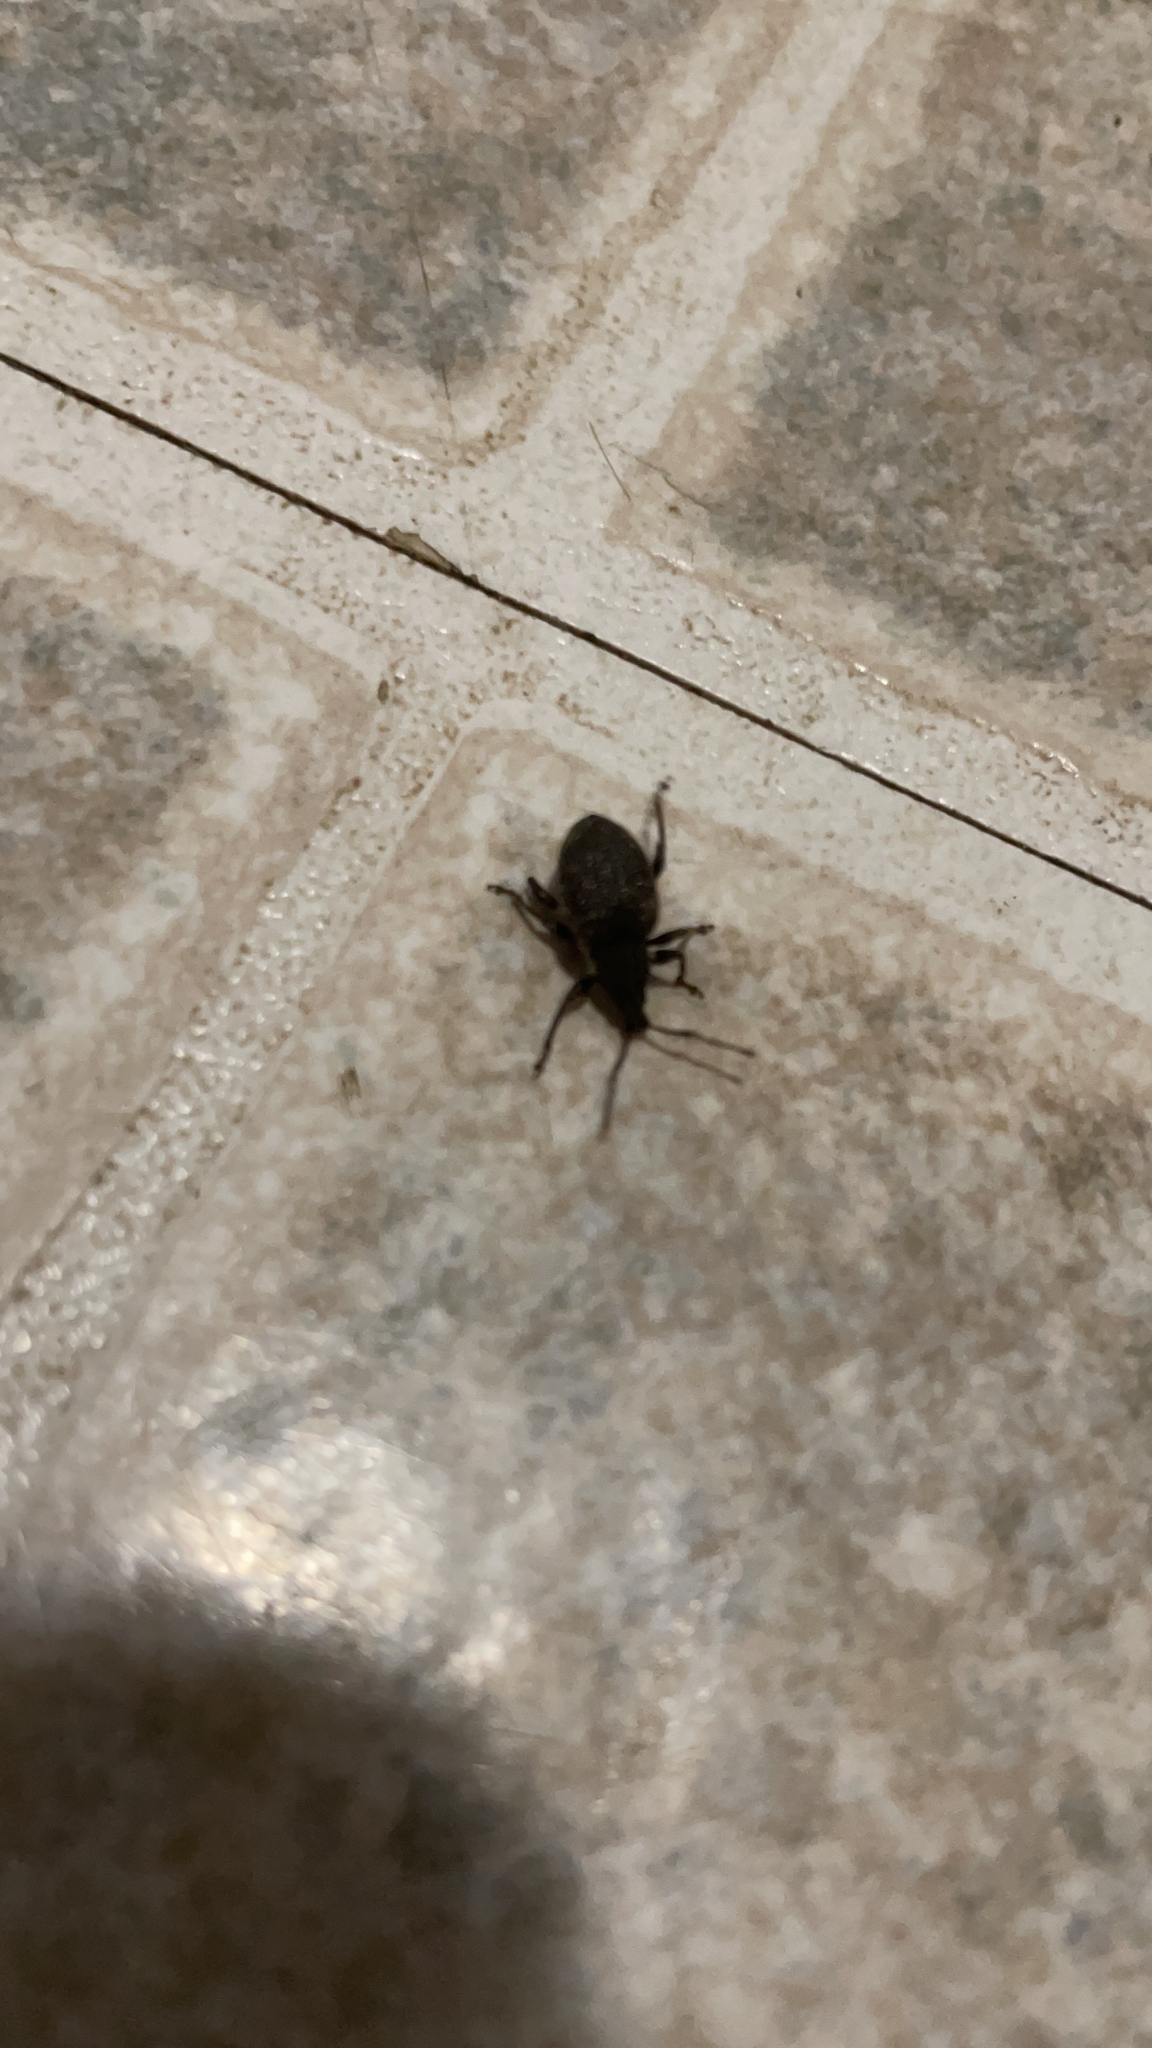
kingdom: Animalia
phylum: Arthropoda
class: Insecta
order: Coleoptera
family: Curculionidae
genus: Otiorhynchus
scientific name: Otiorhynchus sulcatus
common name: Black vine weevil
